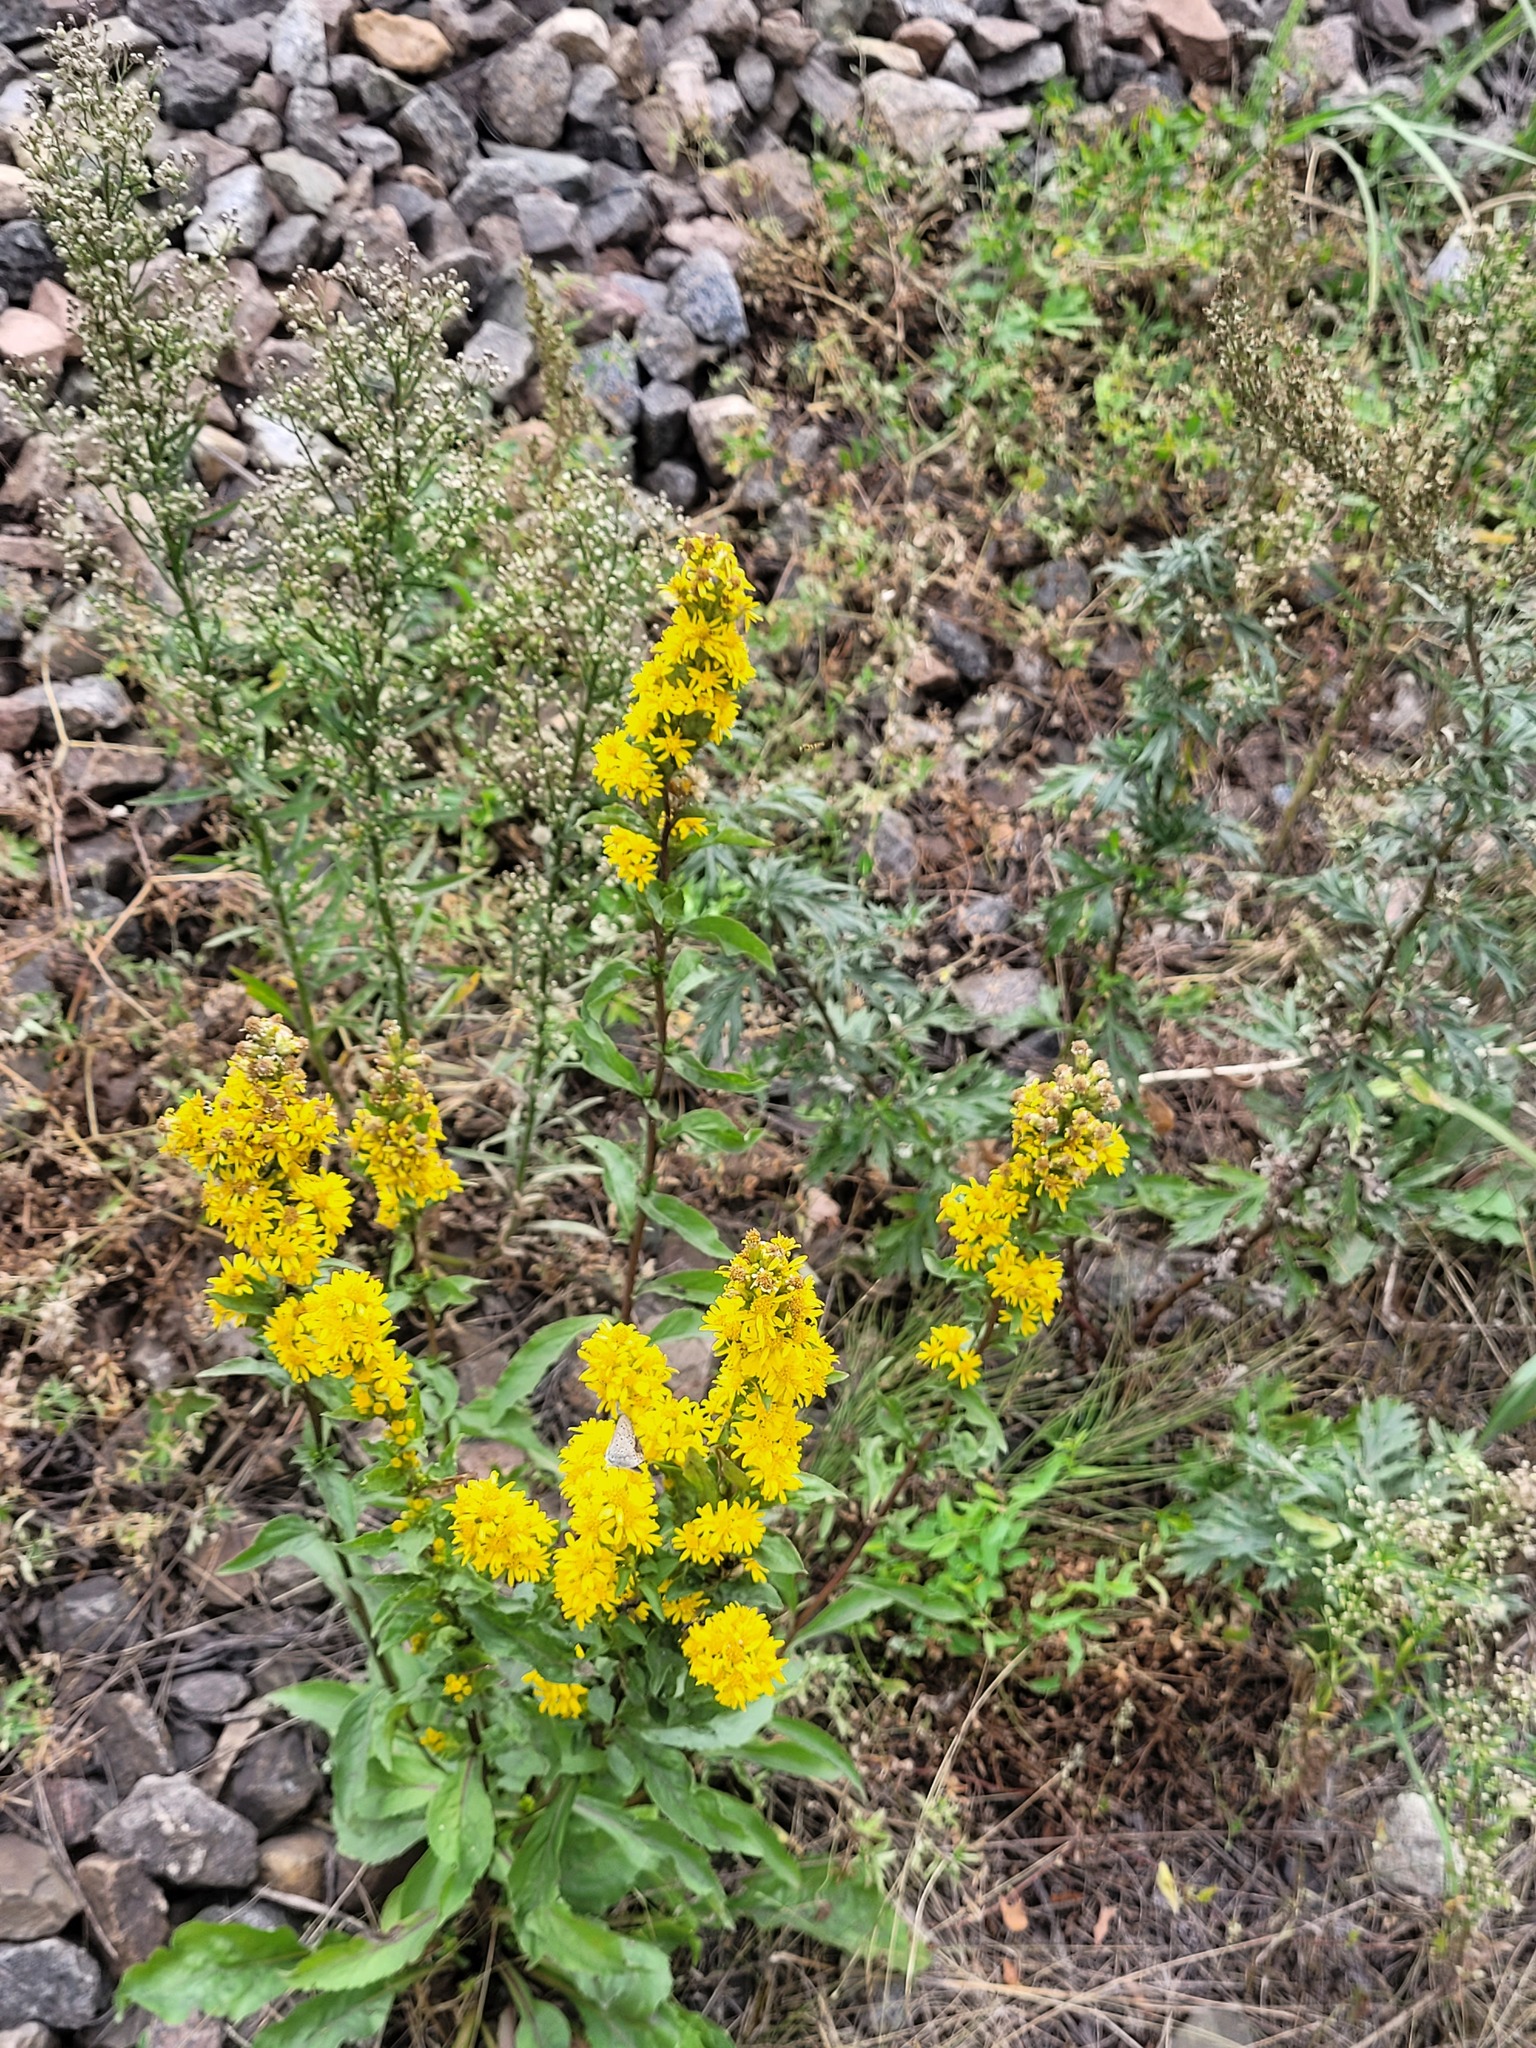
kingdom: Plantae
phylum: Tracheophyta
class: Magnoliopsida
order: Asterales
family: Asteraceae
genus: Solidago
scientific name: Solidago virgaurea
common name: Goldenrod
